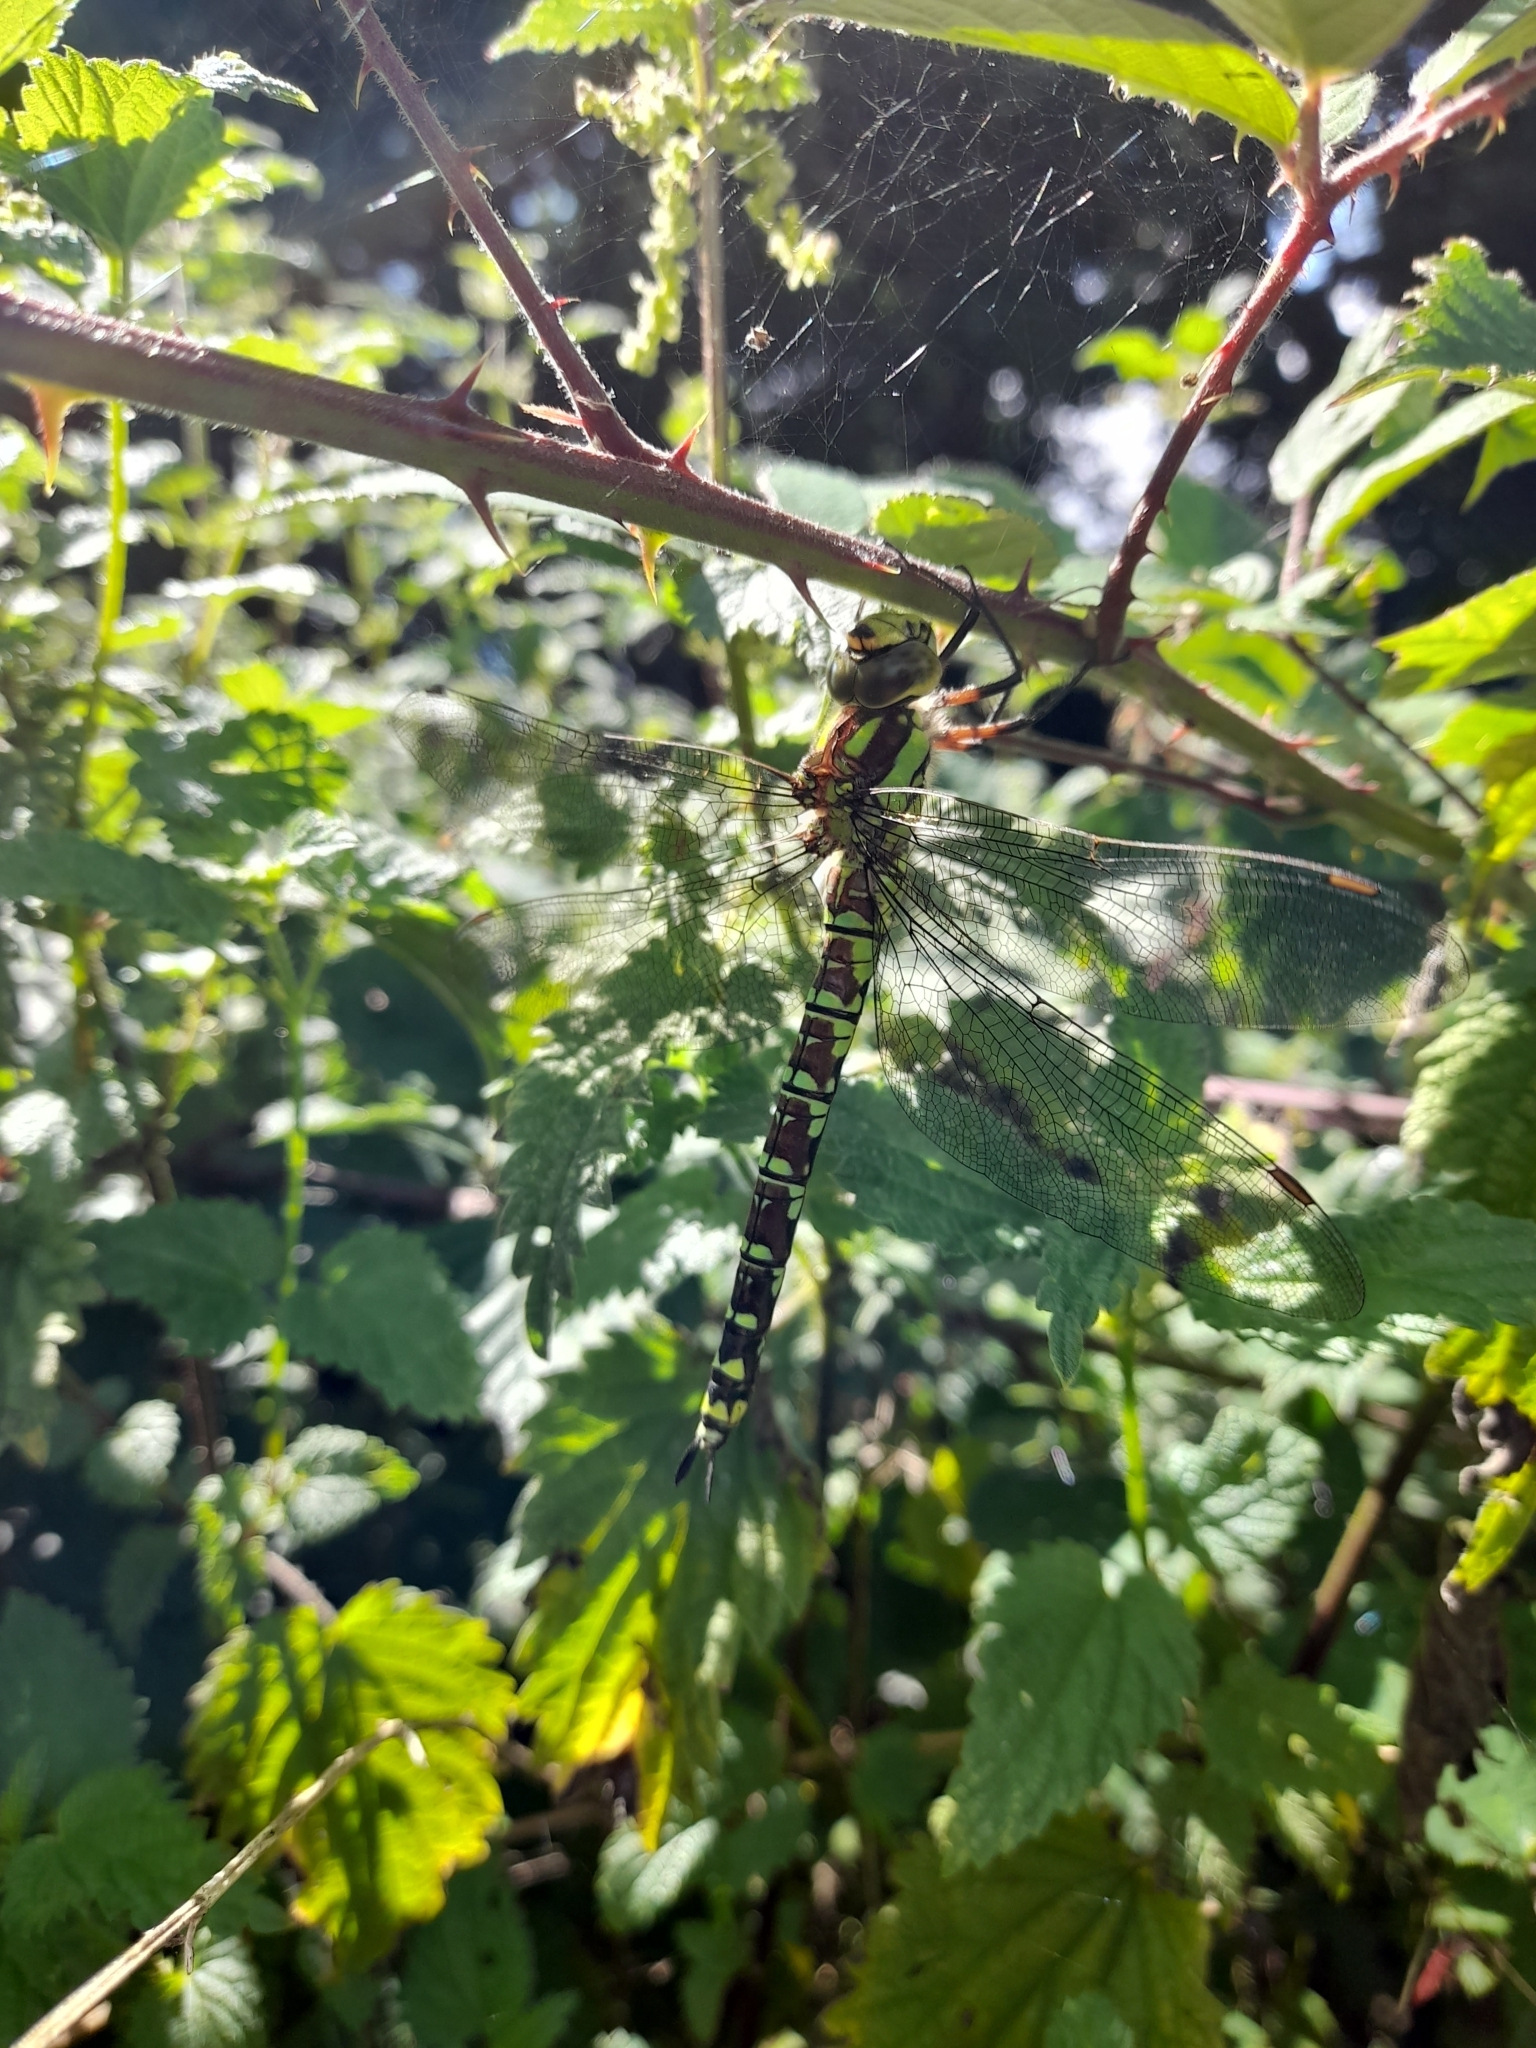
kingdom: Animalia
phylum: Arthropoda
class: Insecta
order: Odonata
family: Aeshnidae
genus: Aeshna
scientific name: Aeshna cyanea
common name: Southern hawker
